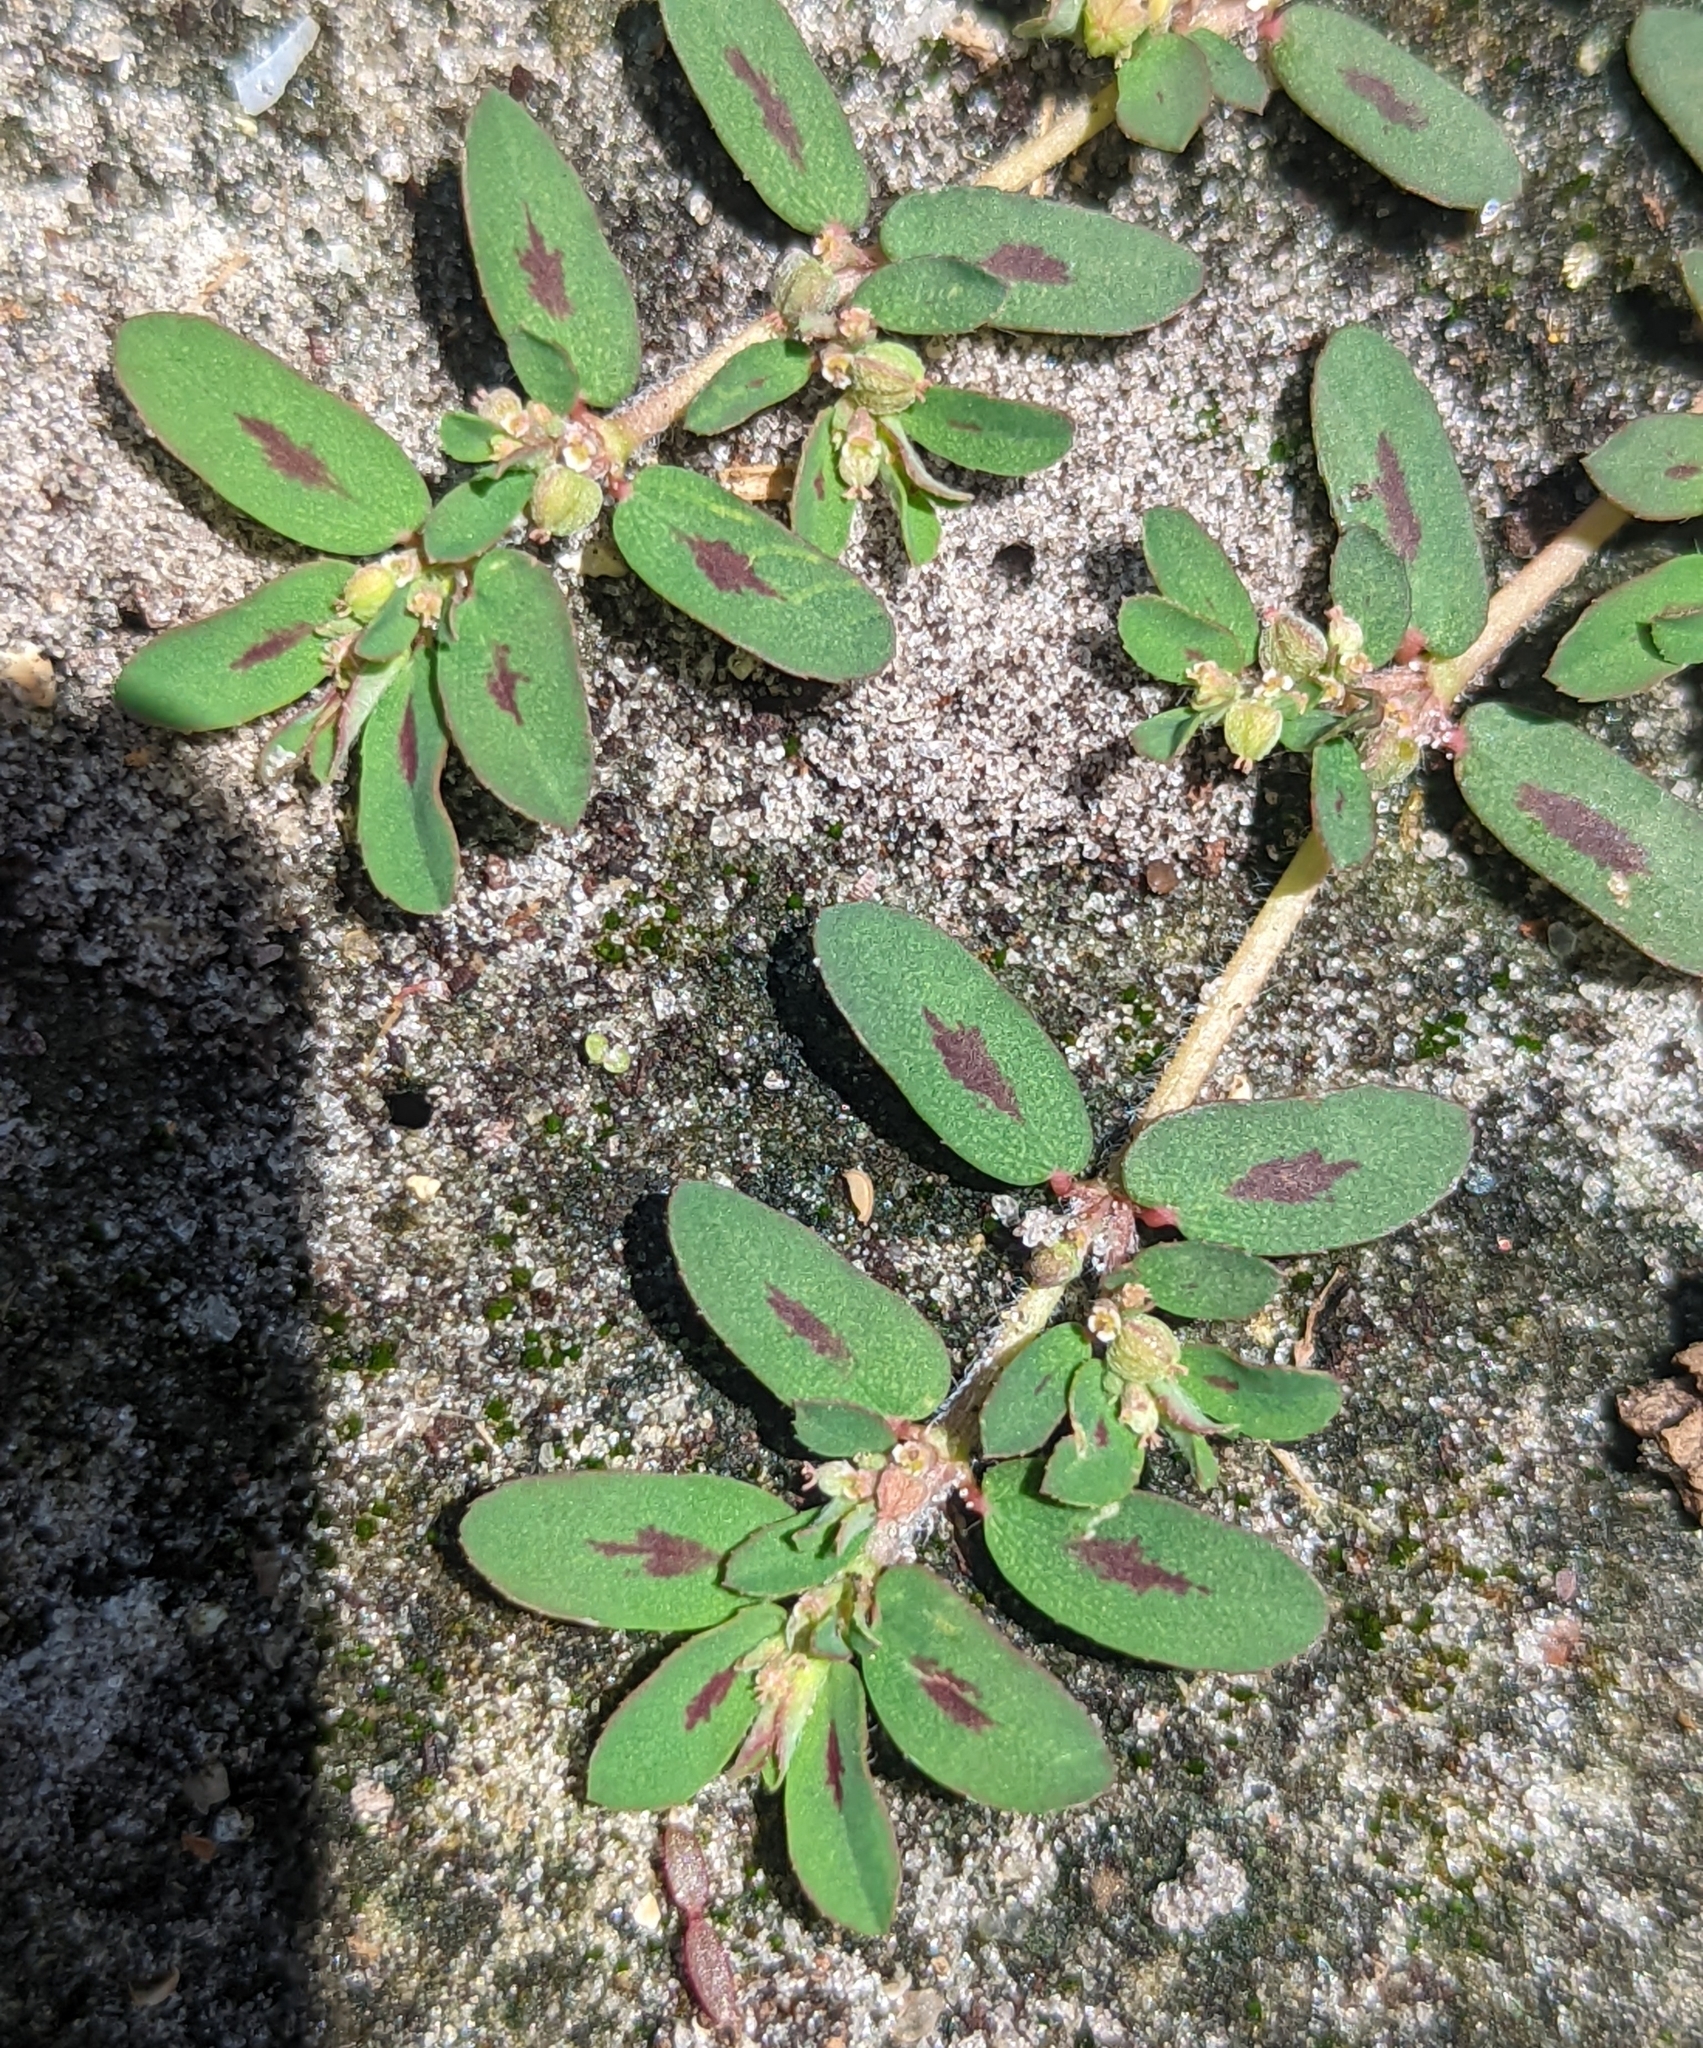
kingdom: Plantae
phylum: Tracheophyta
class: Magnoliopsida
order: Malpighiales
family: Euphorbiaceae
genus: Euphorbia
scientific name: Euphorbia maculata
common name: Spotted spurge
